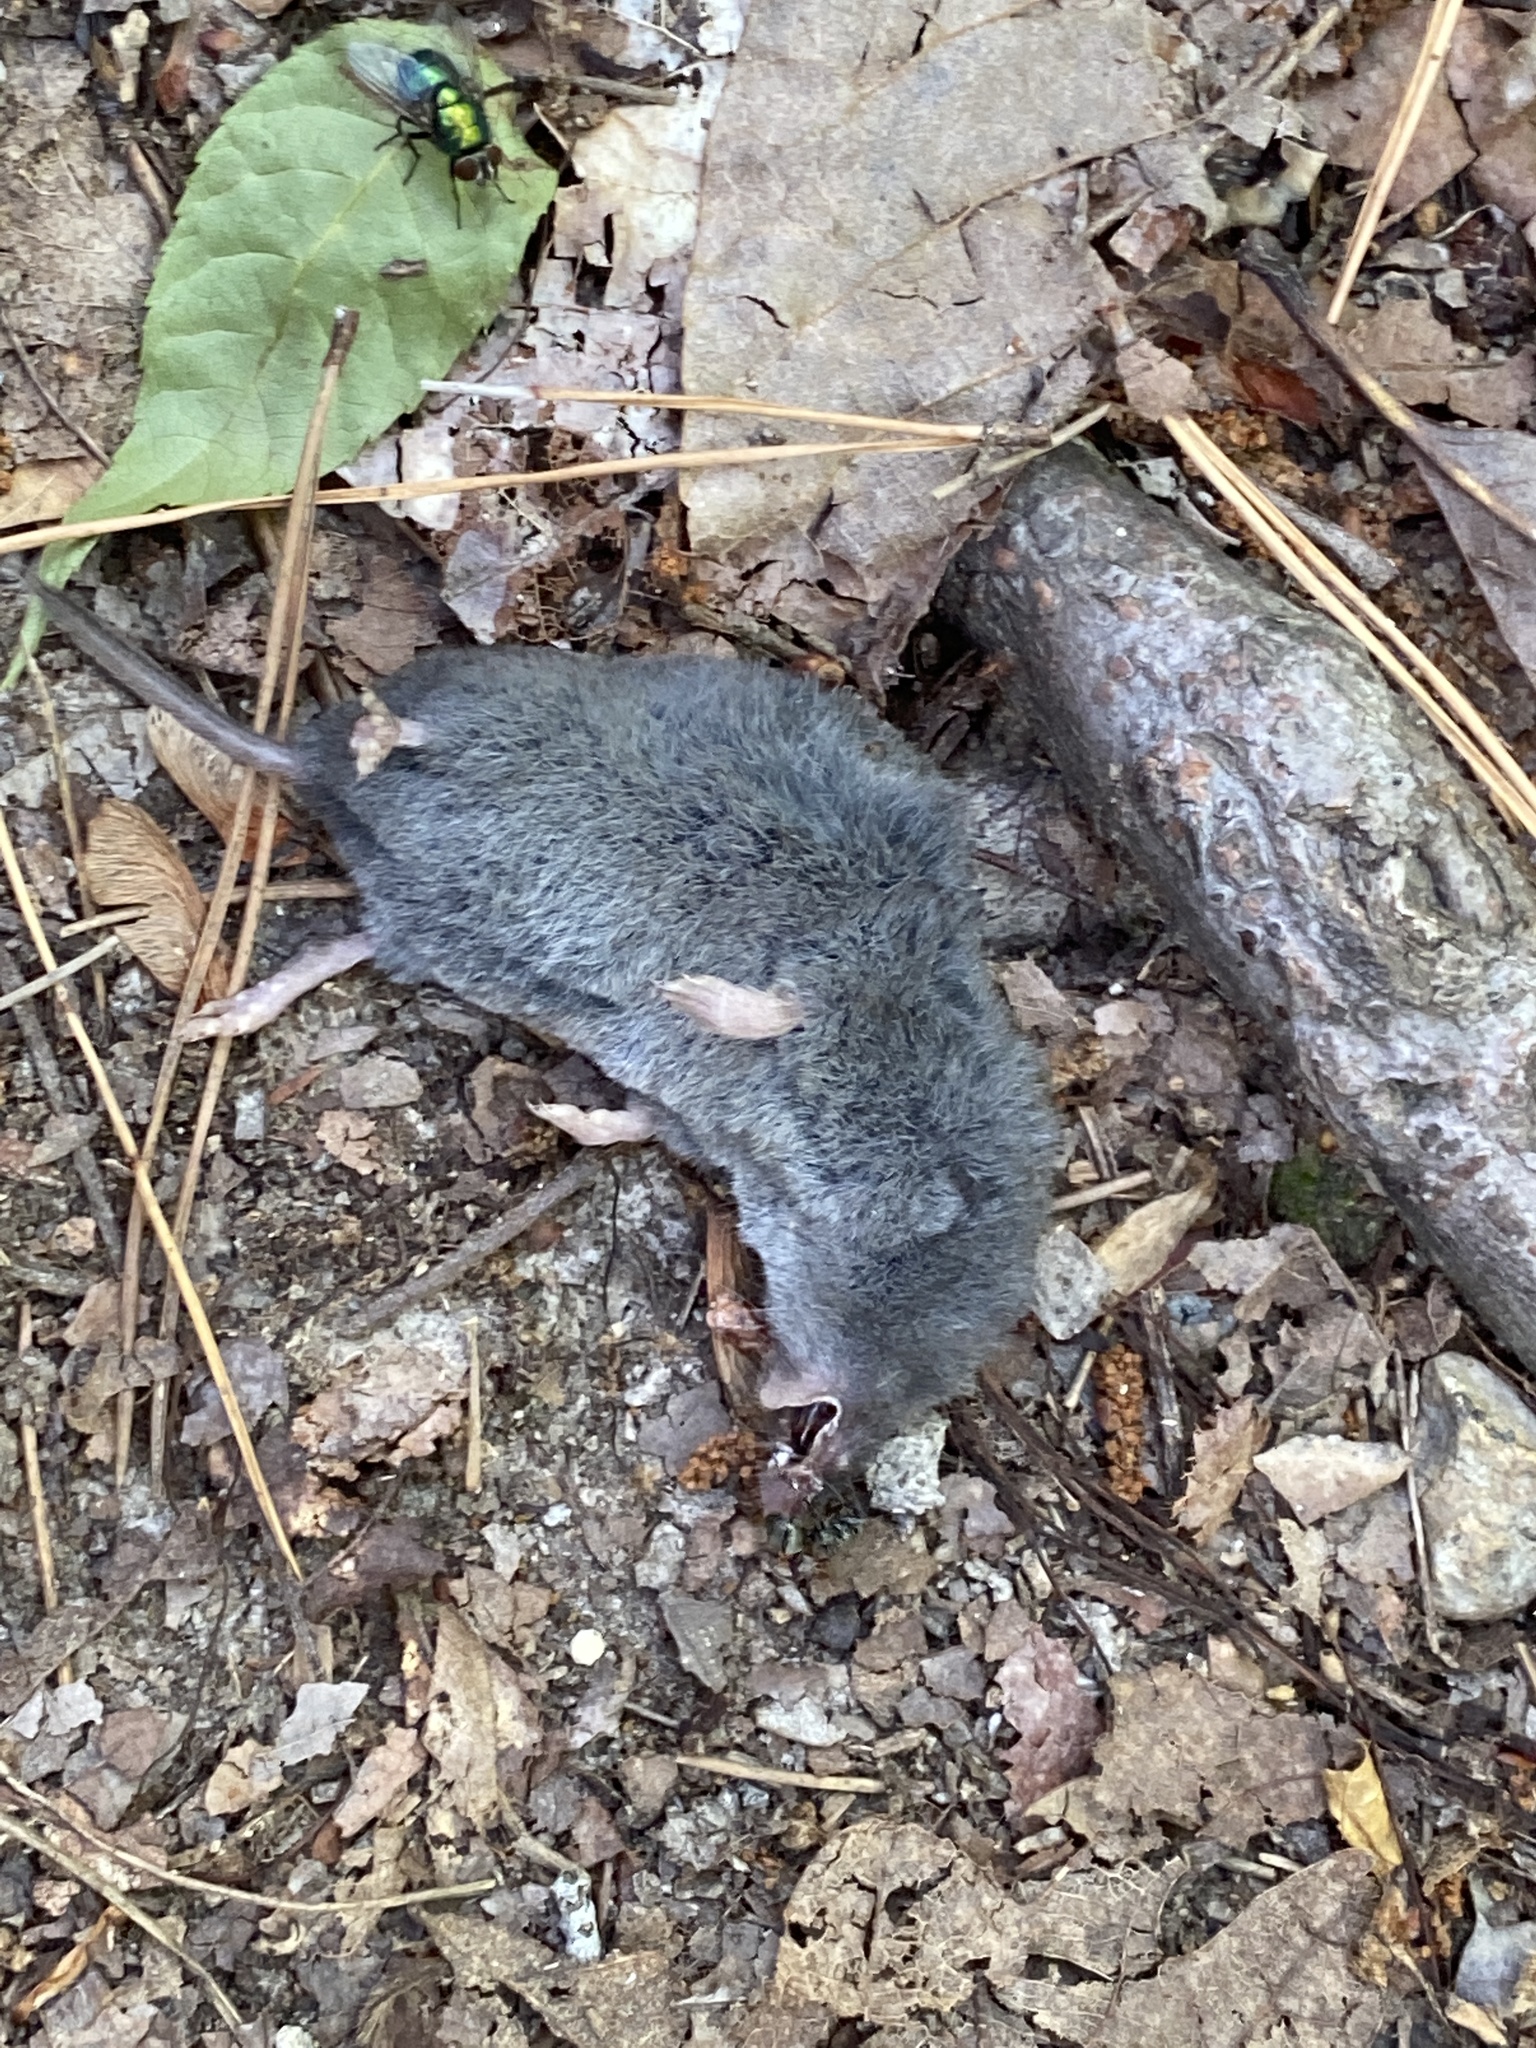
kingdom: Animalia
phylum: Chordata
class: Mammalia
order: Soricomorpha
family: Soricidae
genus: Blarina
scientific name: Blarina carolinensis
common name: Southern short-tailed shrew
